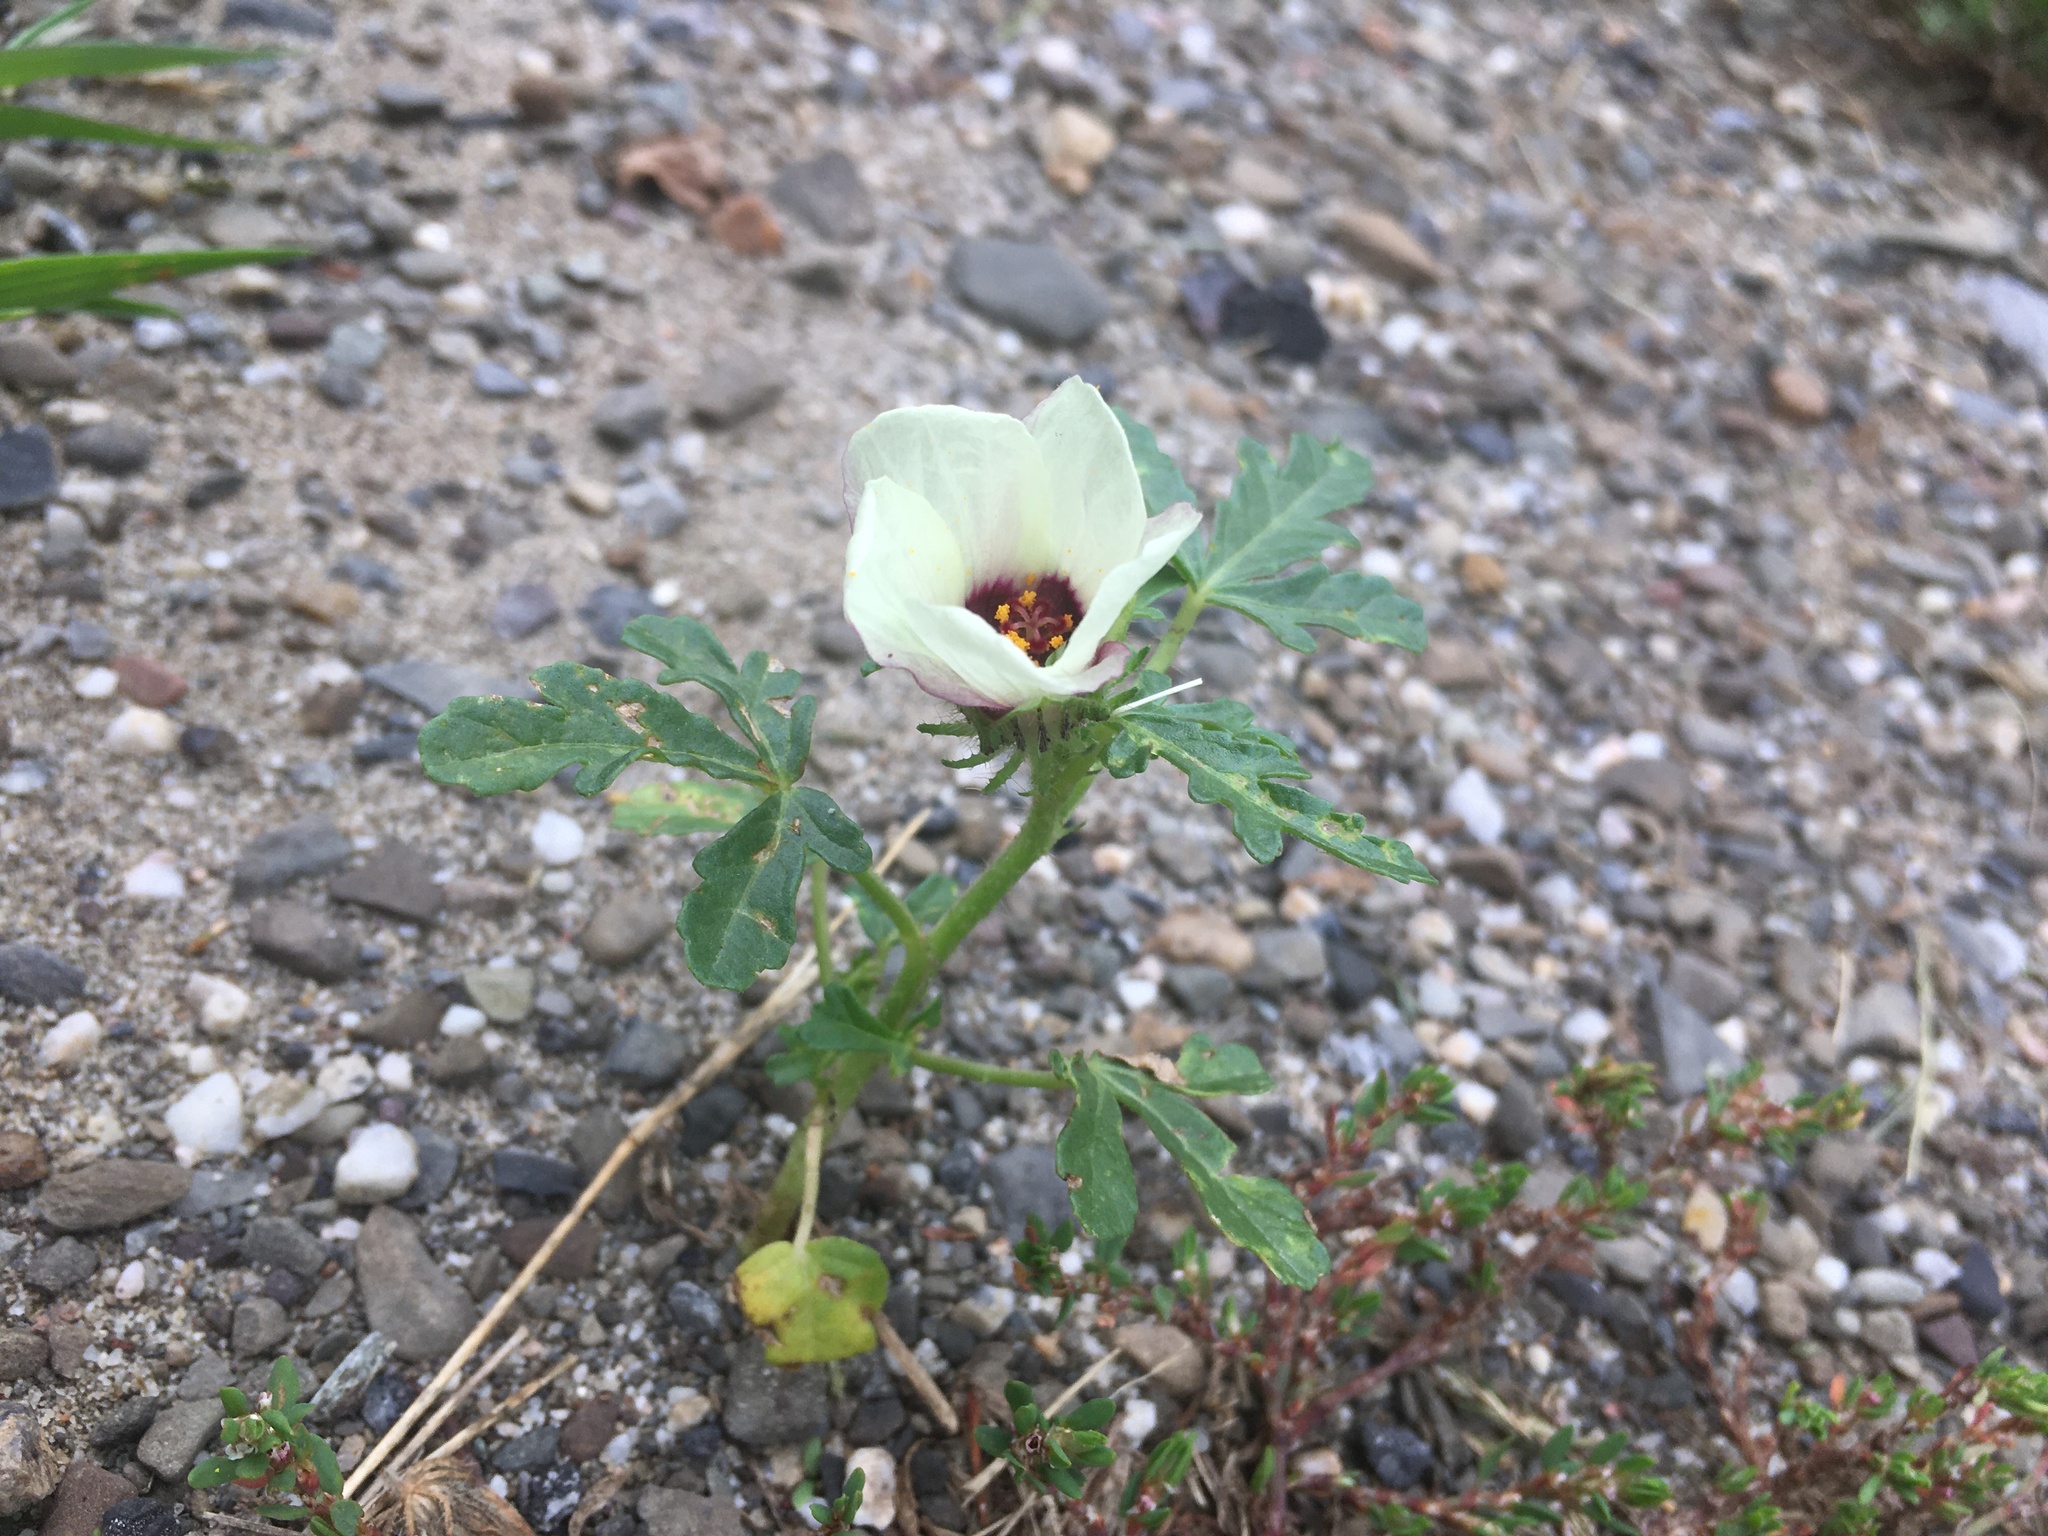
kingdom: Plantae
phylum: Tracheophyta
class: Magnoliopsida
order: Malvales
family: Malvaceae
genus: Hibiscus
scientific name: Hibiscus trionum
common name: Bladder ketmia
